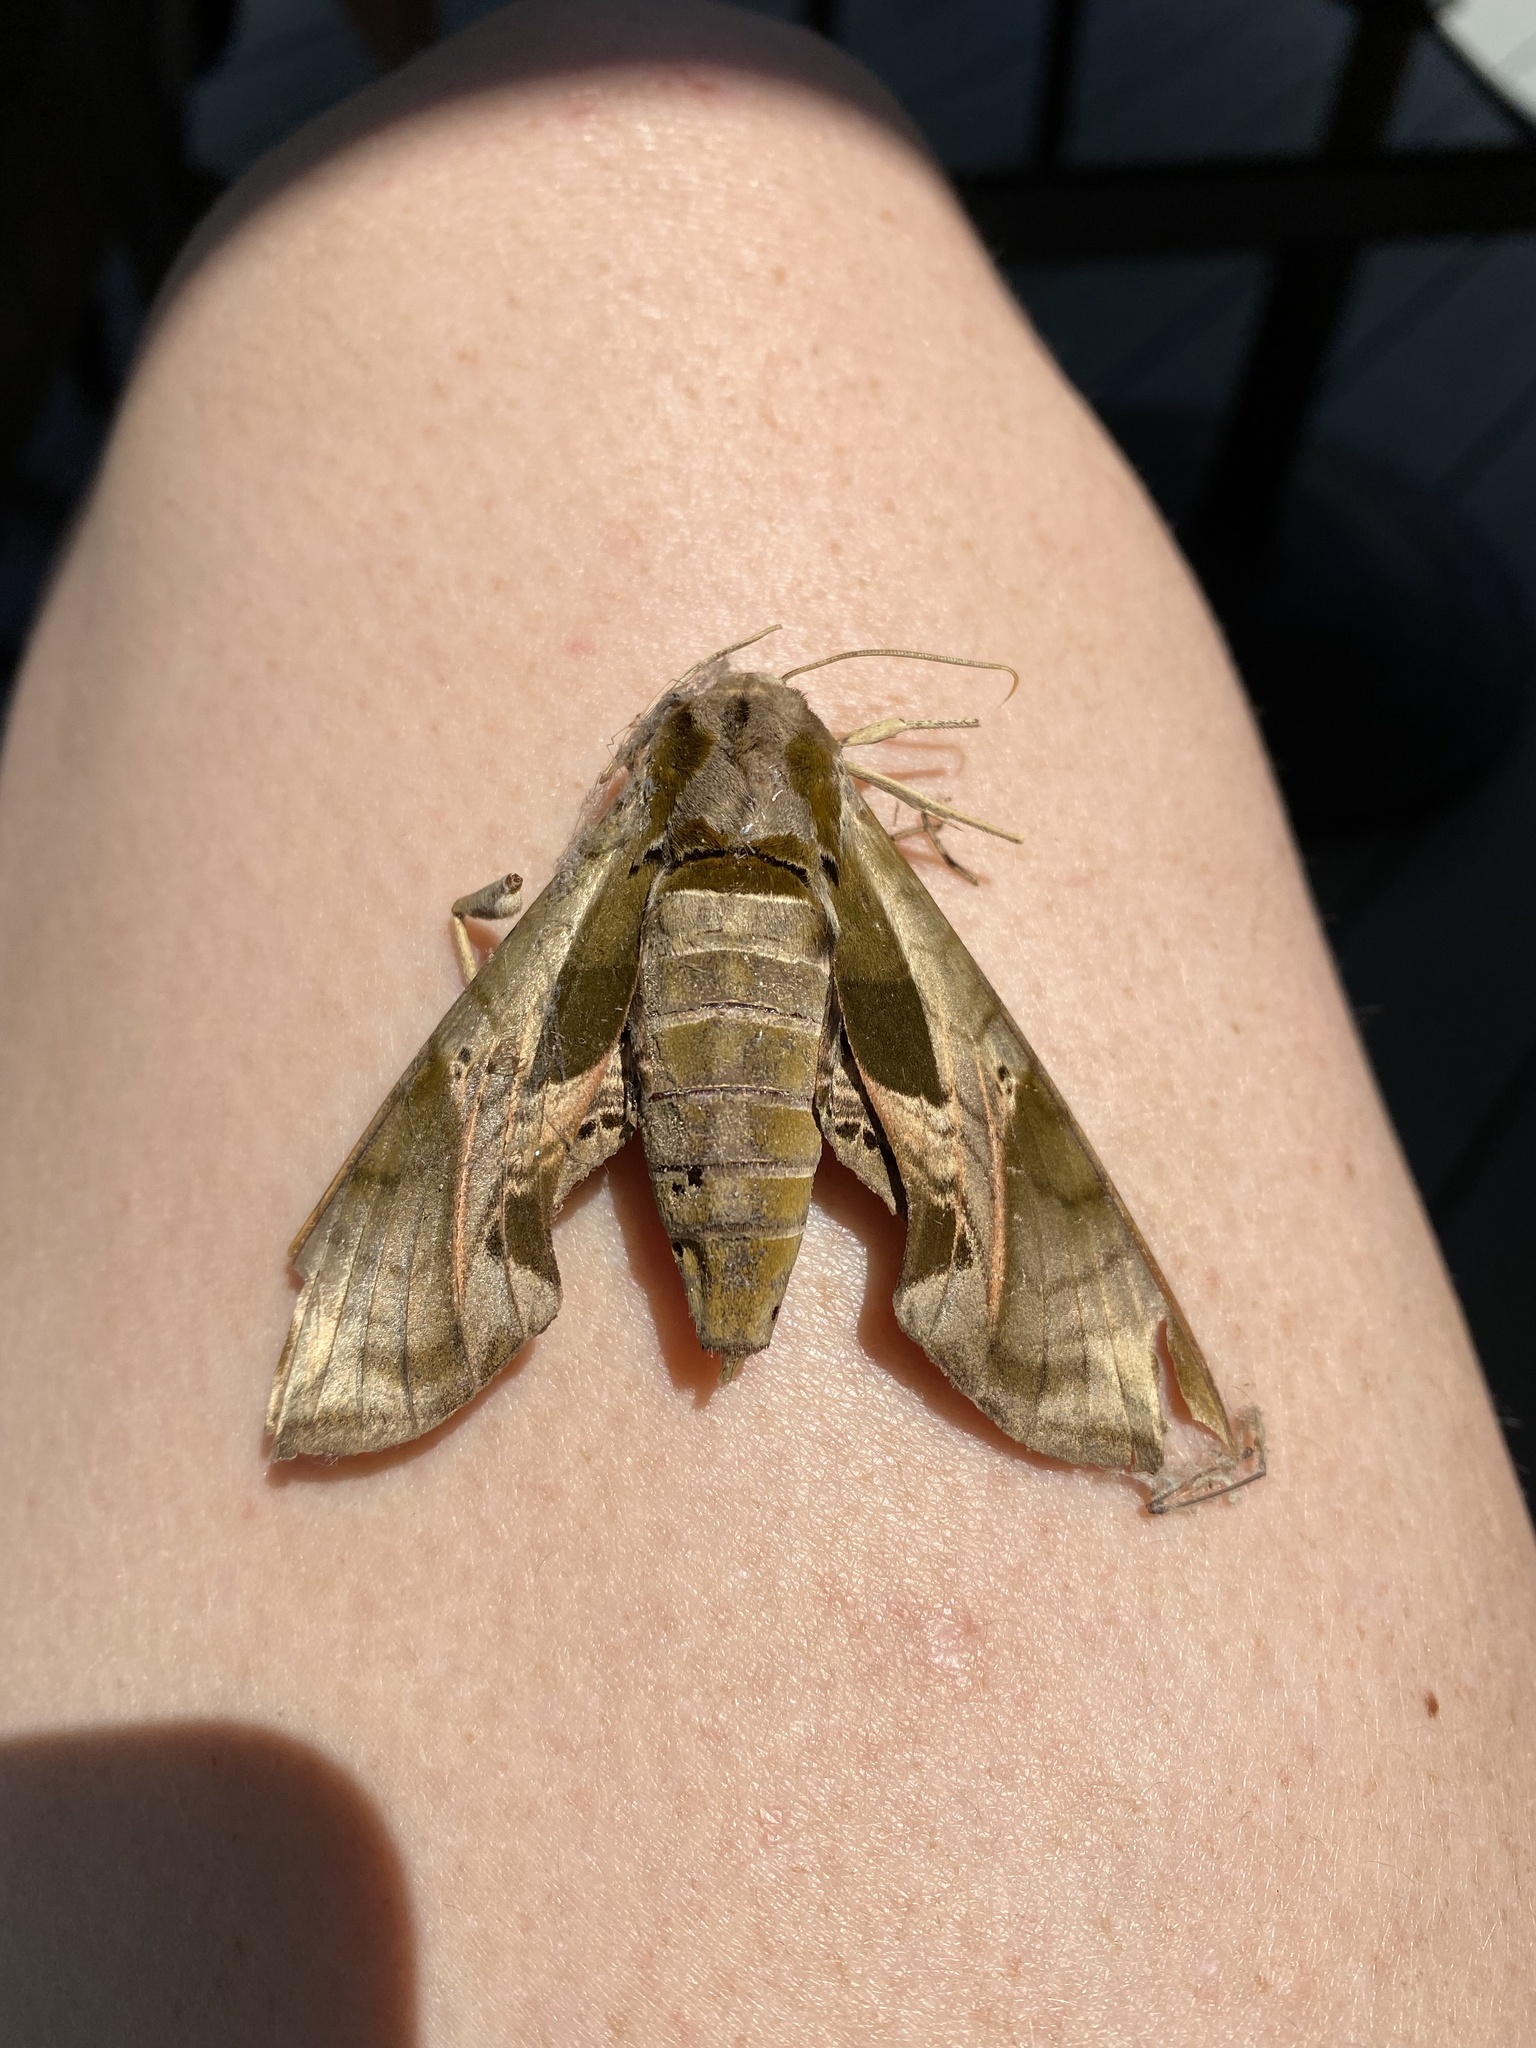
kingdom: Animalia
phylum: Arthropoda
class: Insecta
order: Lepidoptera
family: Sphingidae
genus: Eumorpha
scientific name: Eumorpha pandorus
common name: Pandora sphinx
